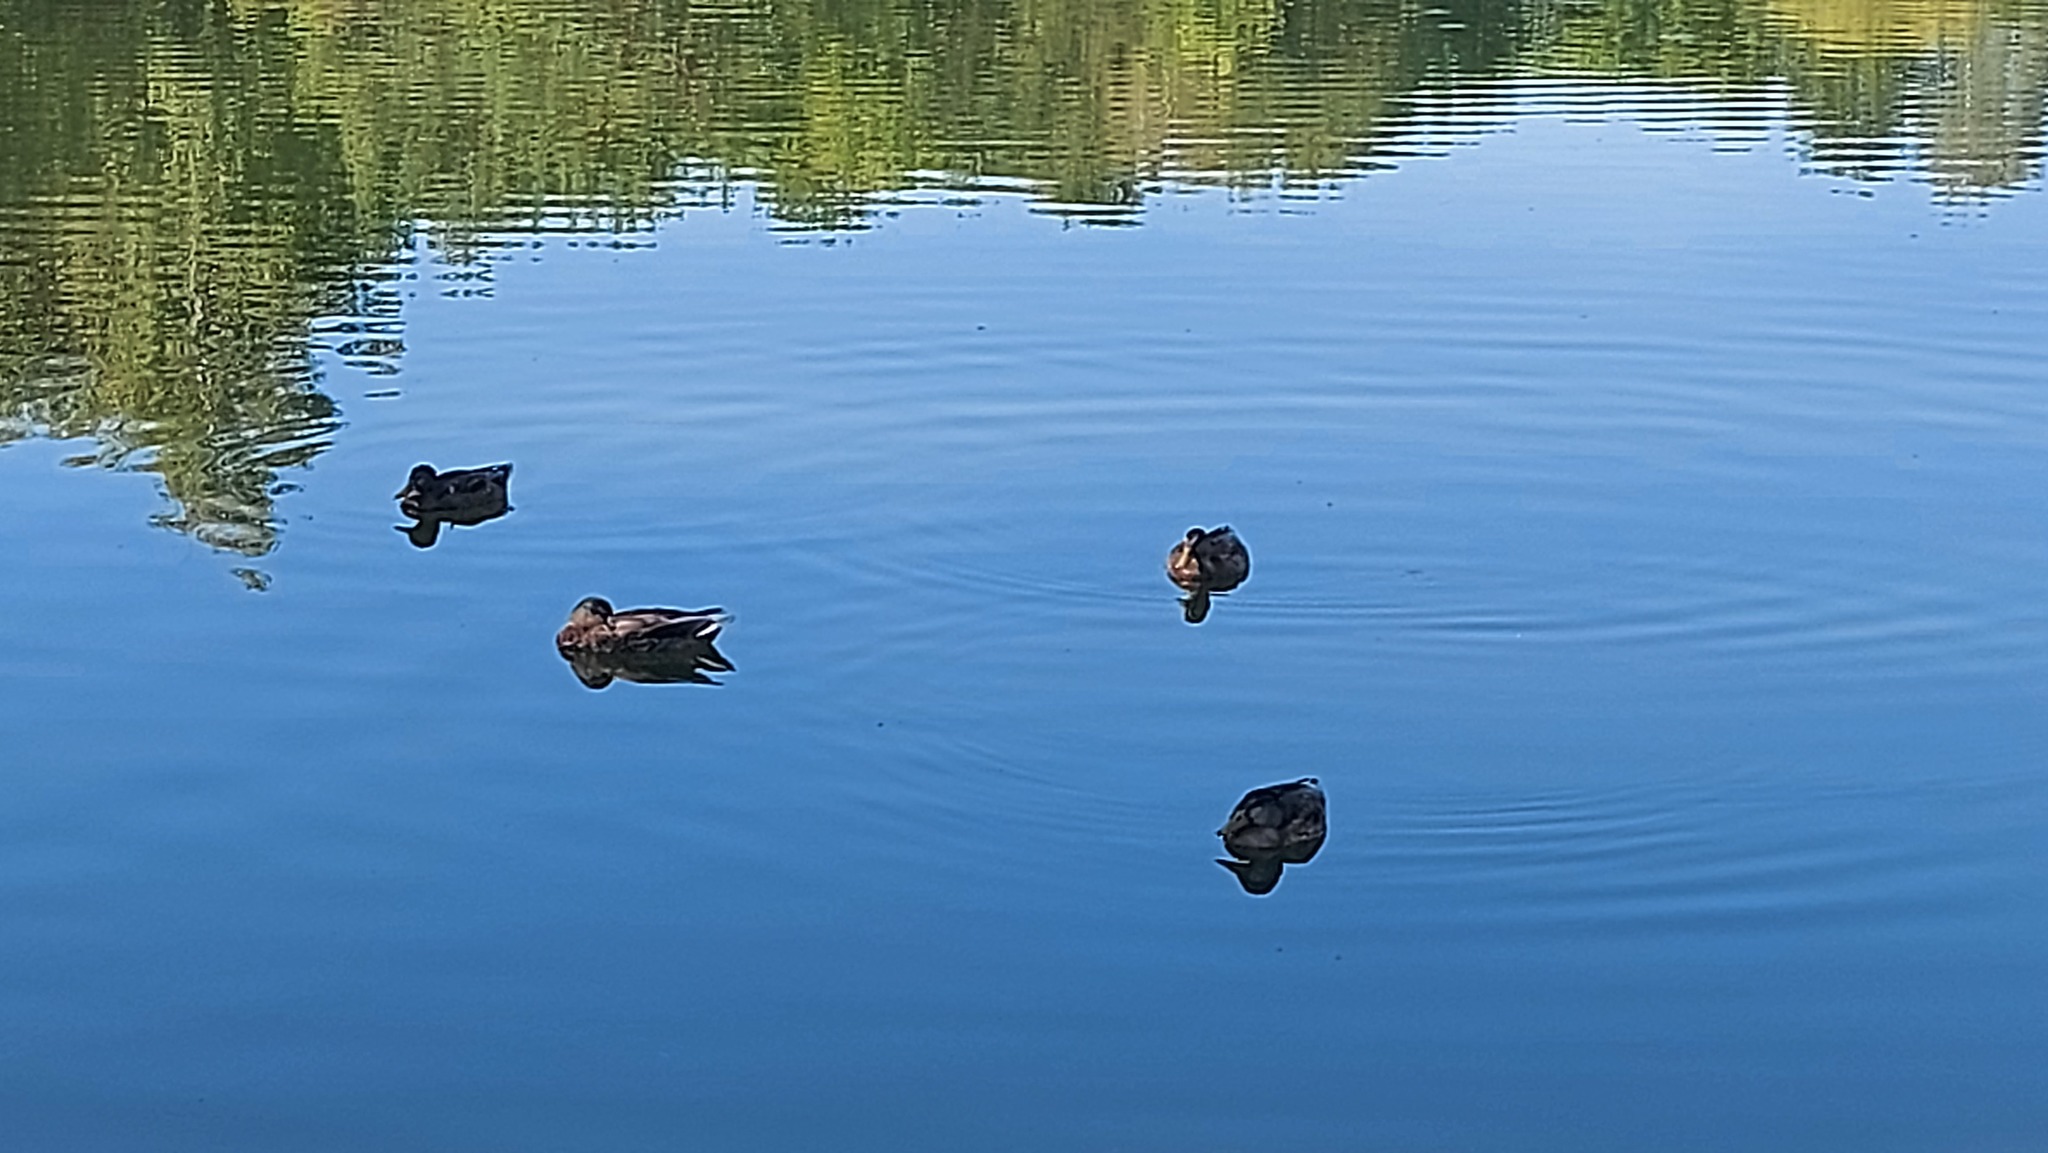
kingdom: Animalia
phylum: Chordata
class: Aves
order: Anseriformes
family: Anatidae
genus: Anas
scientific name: Anas platyrhynchos
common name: Mallard
